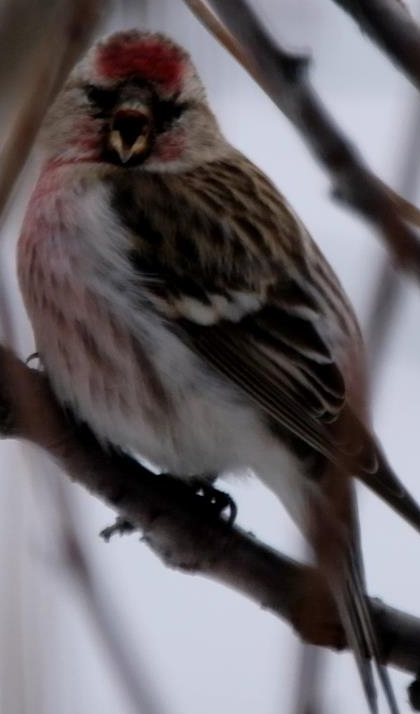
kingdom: Animalia
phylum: Chordata
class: Aves
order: Passeriformes
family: Fringillidae
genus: Acanthis
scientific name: Acanthis flammea
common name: Common redpoll
